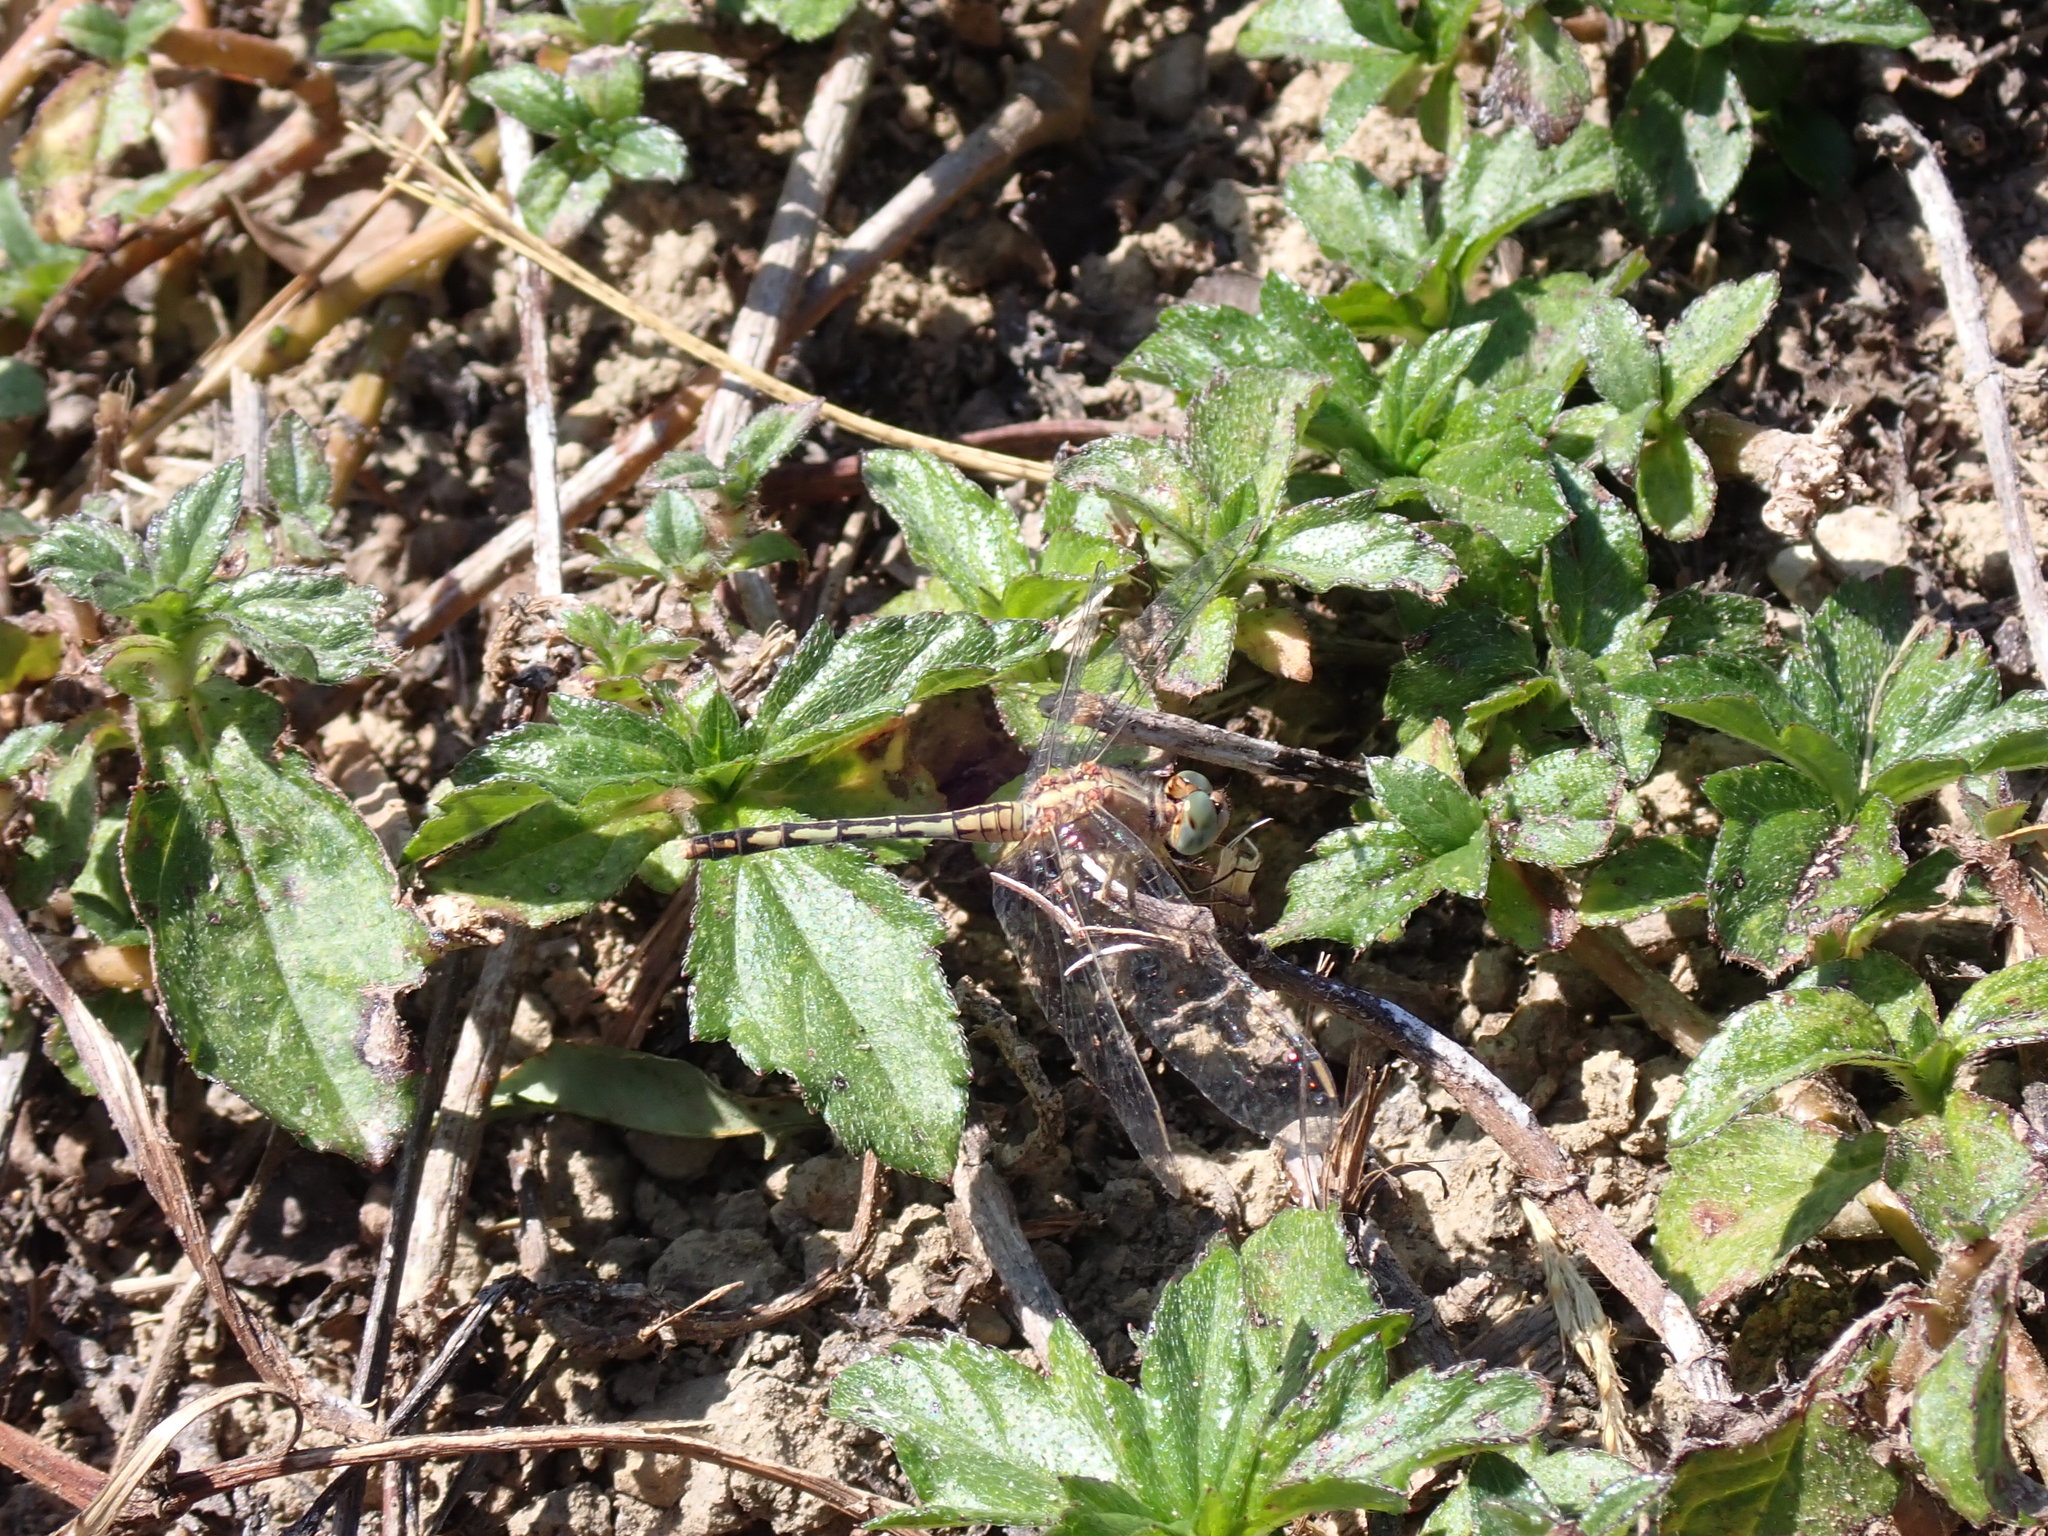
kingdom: Animalia
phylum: Arthropoda
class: Insecta
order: Odonata
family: Libellulidae
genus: Diplacodes
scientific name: Diplacodes trivialis
